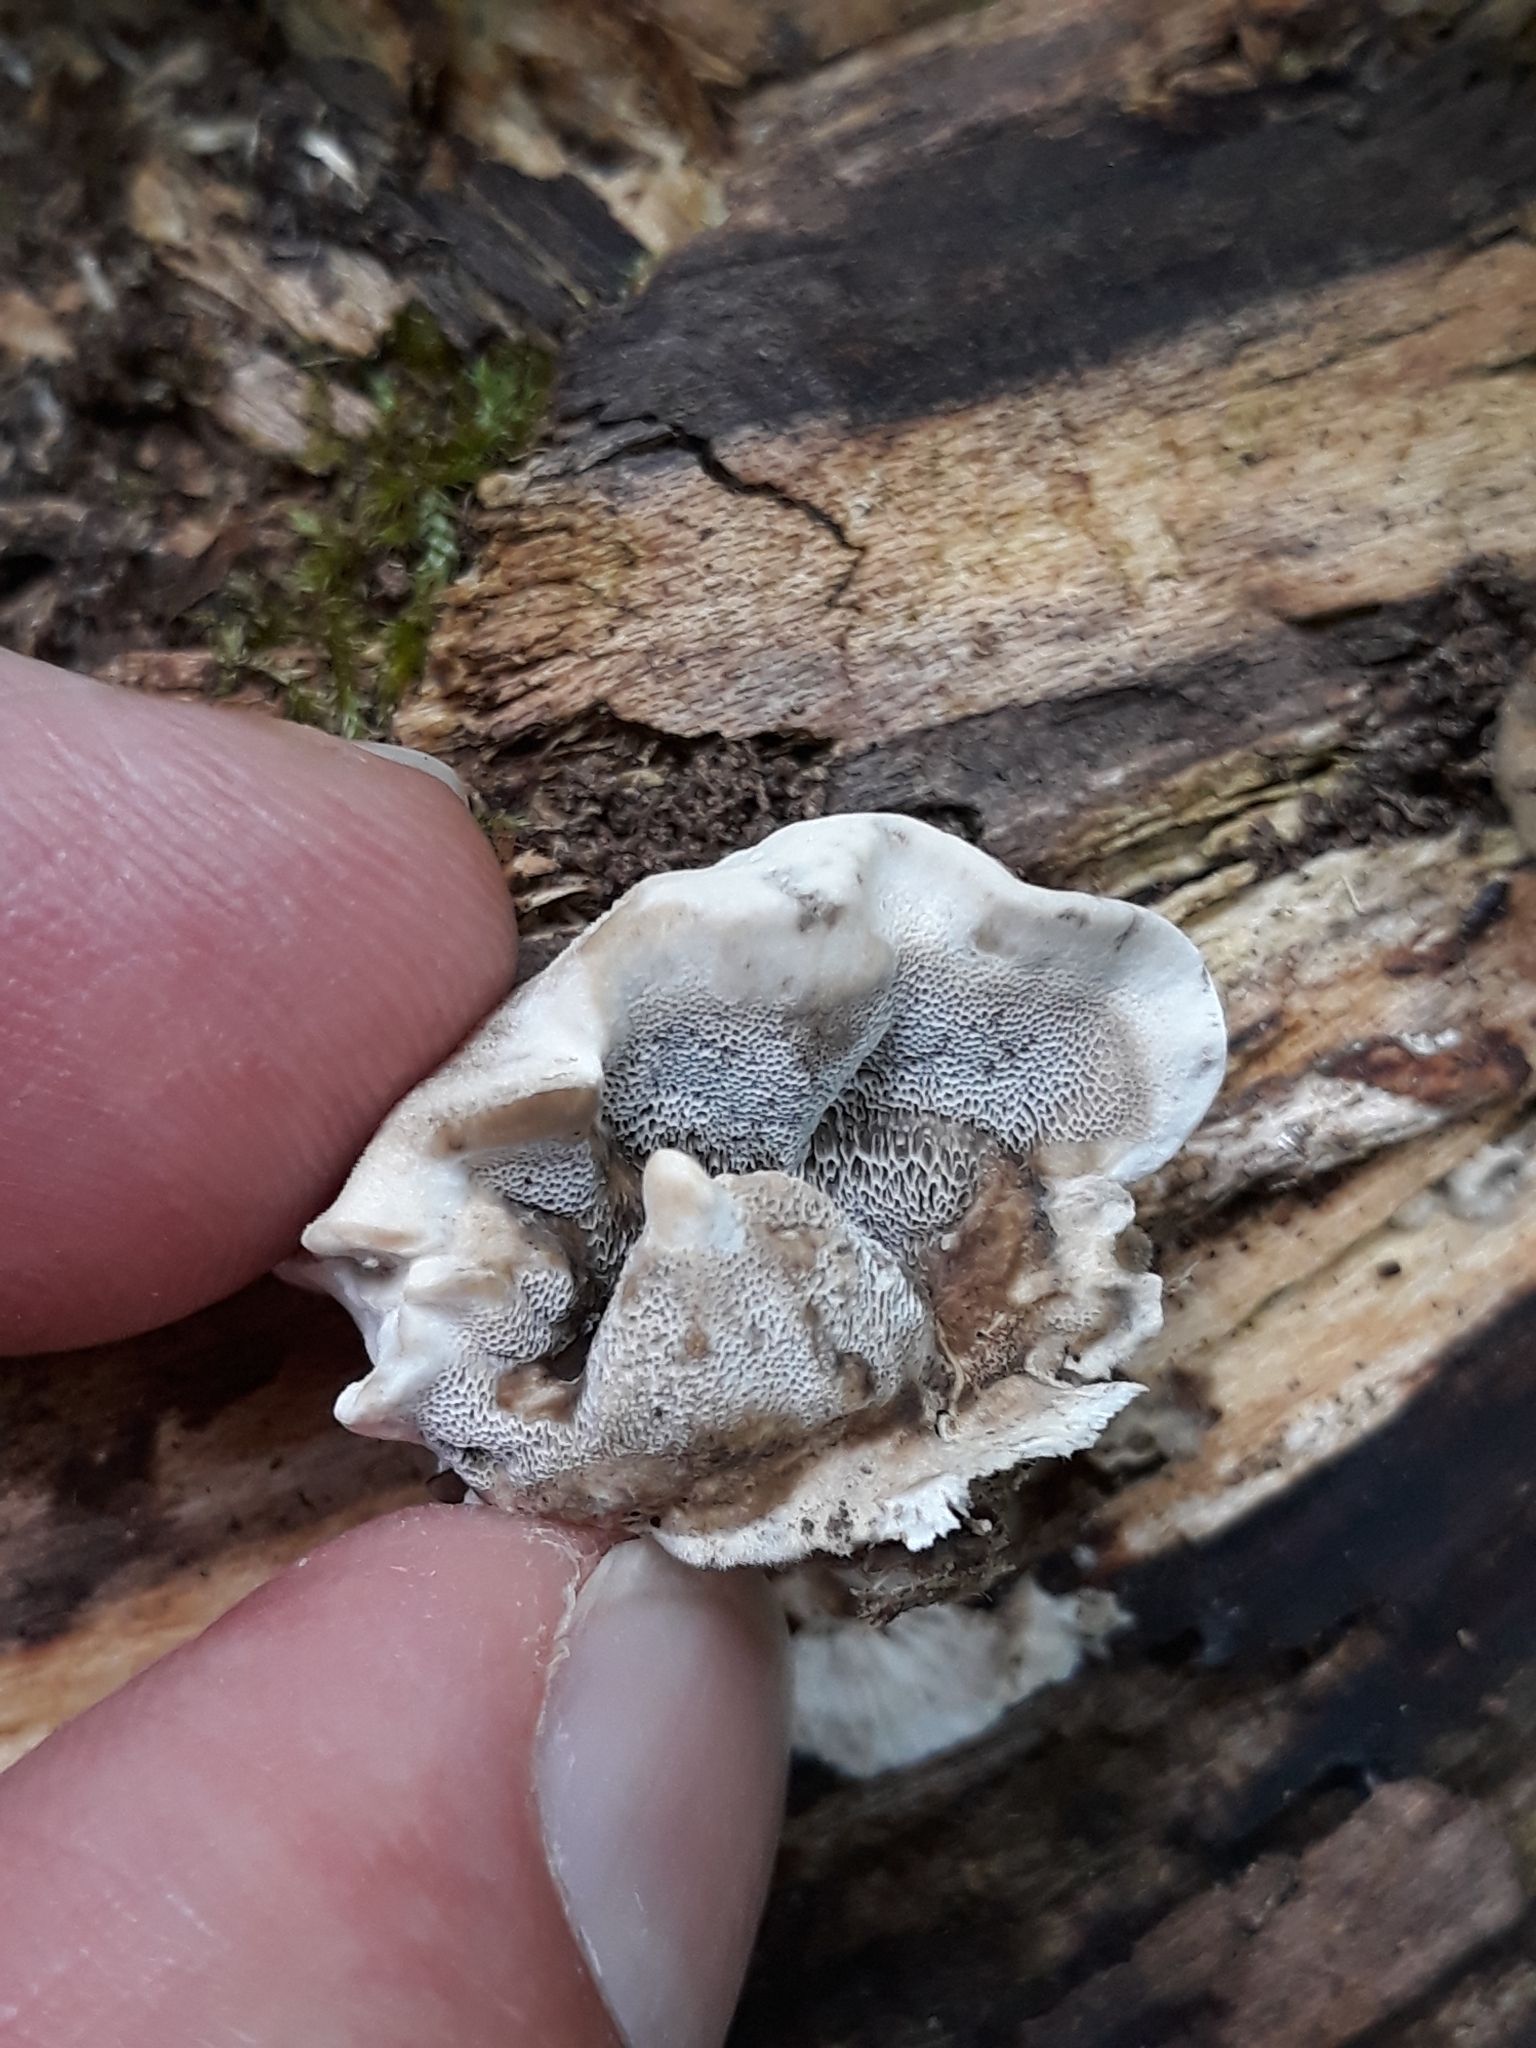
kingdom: Fungi
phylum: Basidiomycota
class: Agaricomycetes
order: Polyporales
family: Phanerochaetaceae
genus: Bjerkandera
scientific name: Bjerkandera adusta
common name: Smoky bracket
